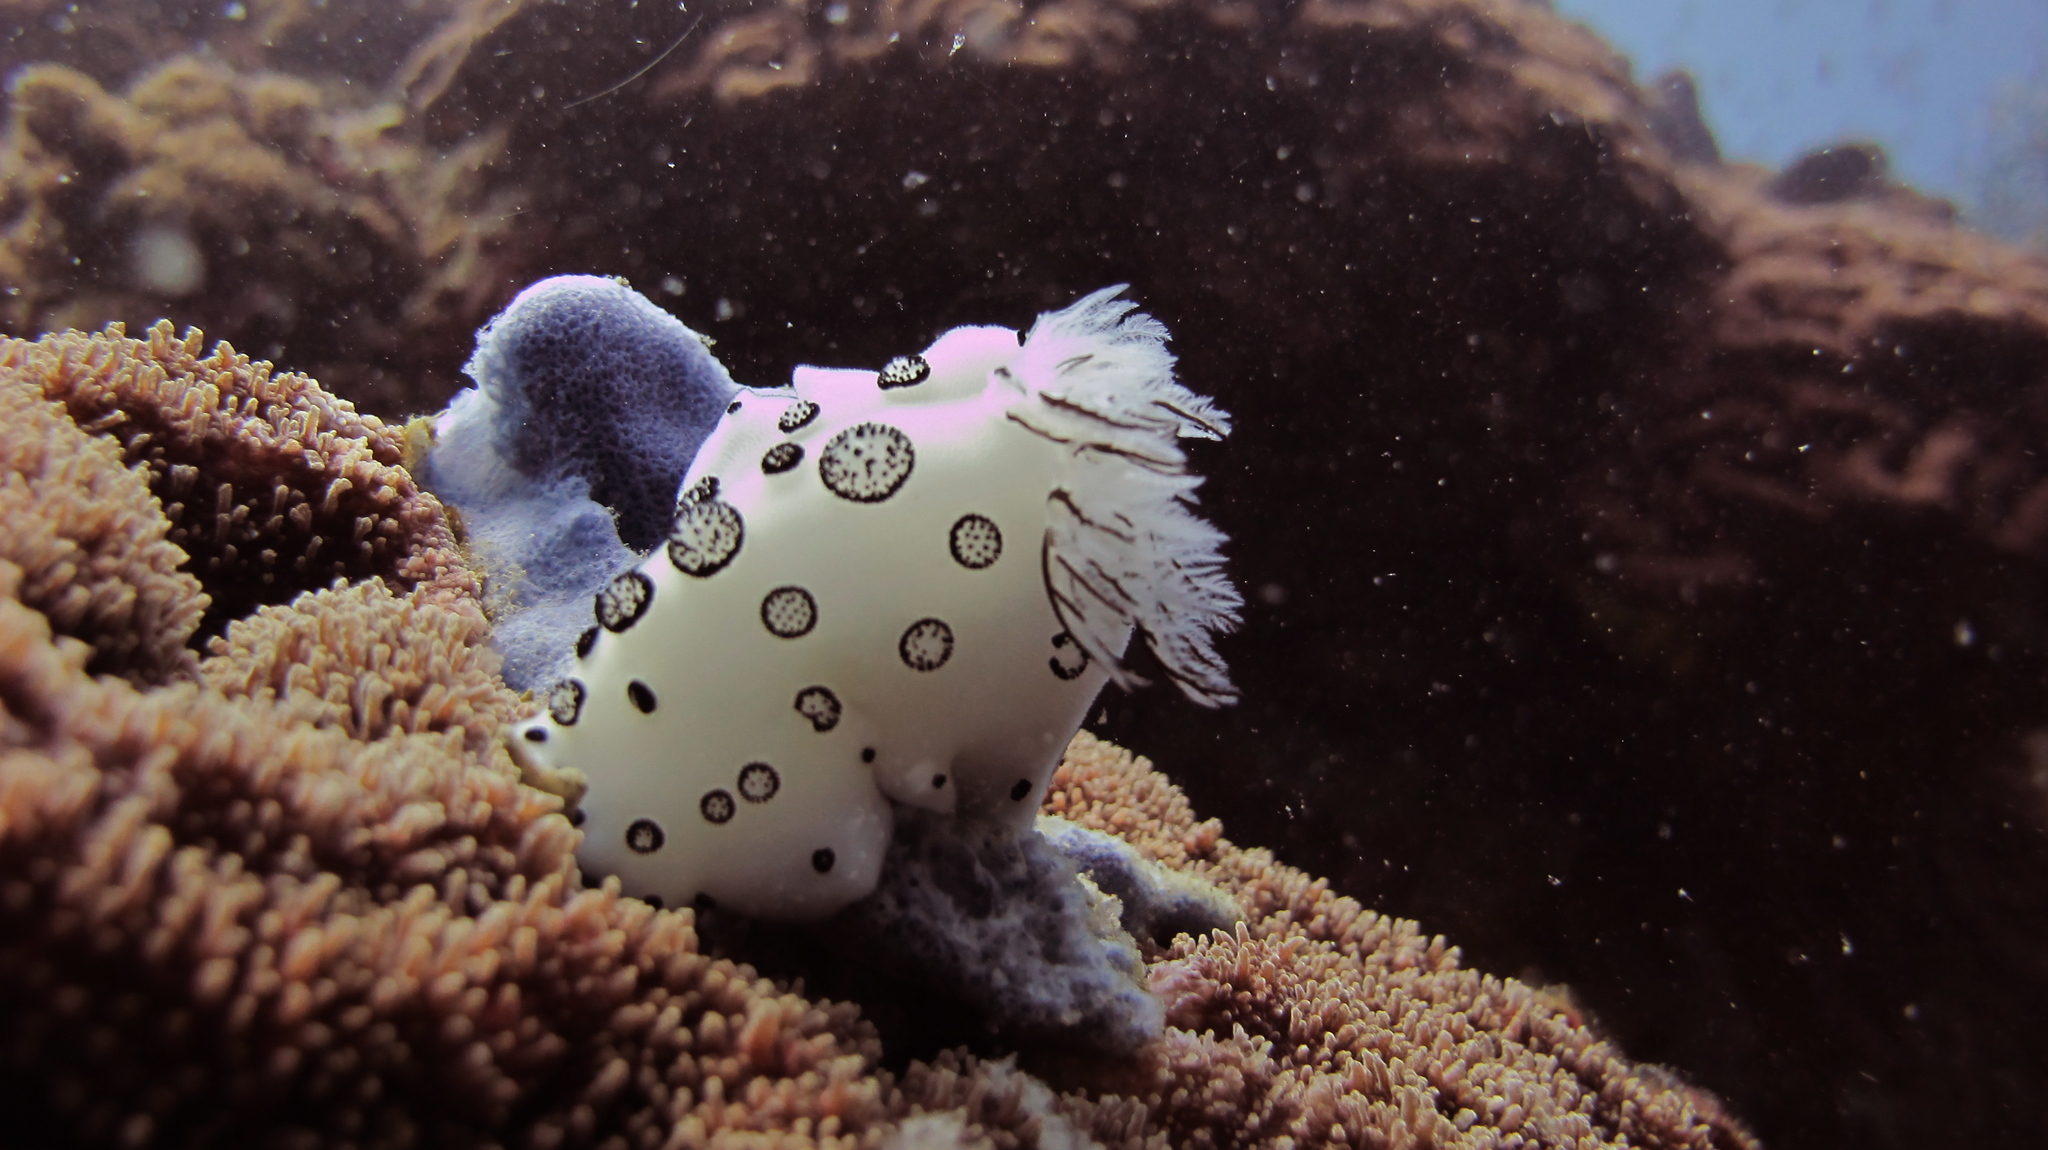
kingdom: Animalia
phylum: Mollusca
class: Gastropoda
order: Nudibranchia
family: Discodorididae
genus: Jorunna
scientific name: Jorunna funebris
